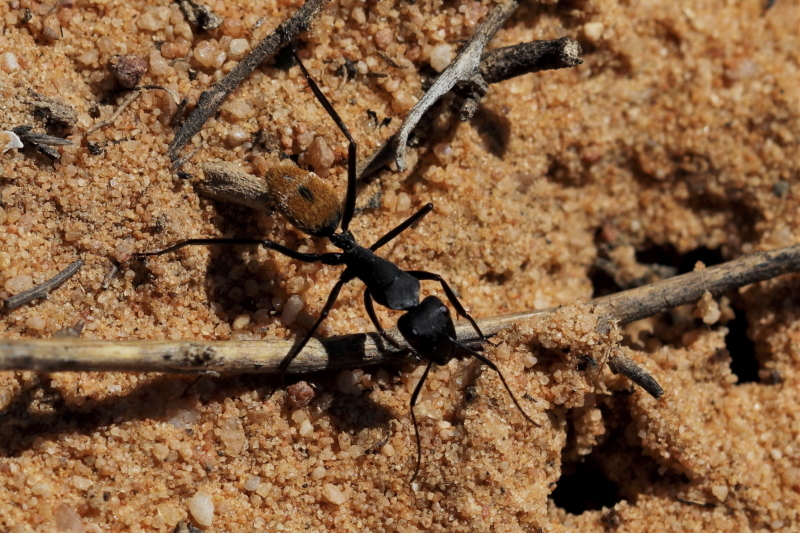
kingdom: Animalia
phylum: Arthropoda
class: Insecta
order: Hymenoptera
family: Formicidae
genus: Camponotus
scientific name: Camponotus fulvopilosus
